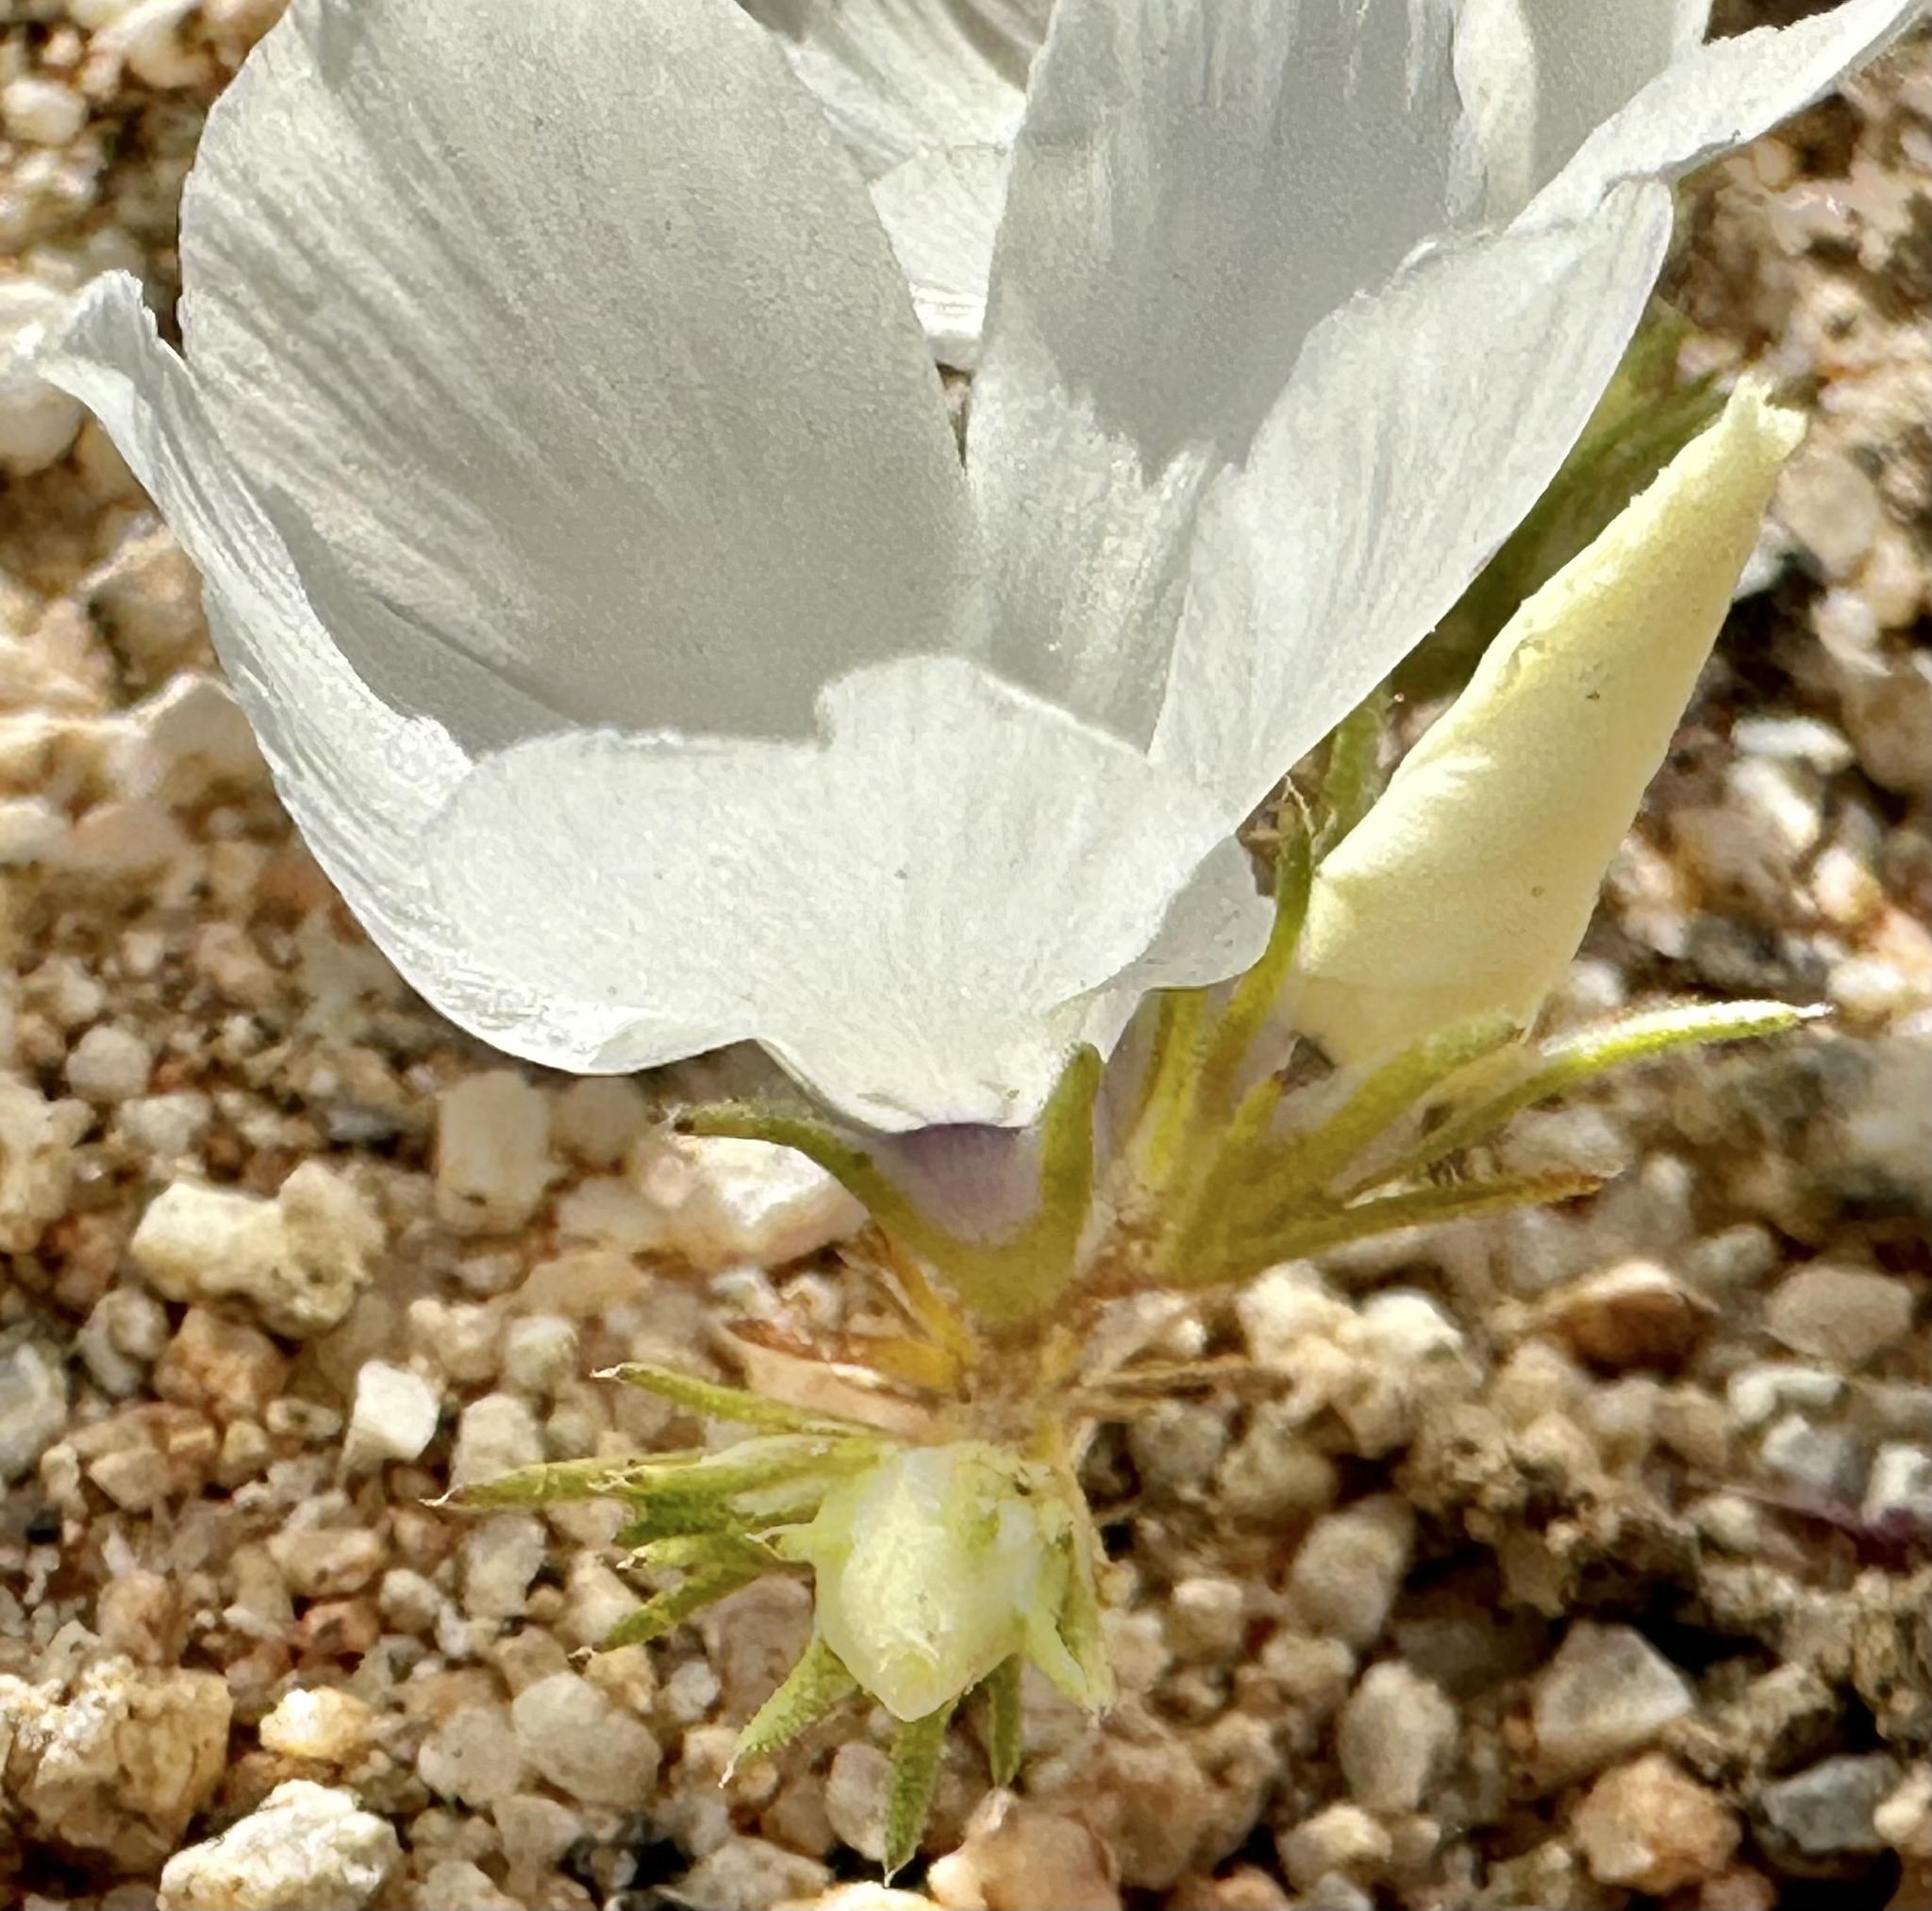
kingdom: Plantae
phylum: Tracheophyta
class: Magnoliopsida
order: Ericales
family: Polemoniaceae
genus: Linanthus
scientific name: Linanthus parryae
